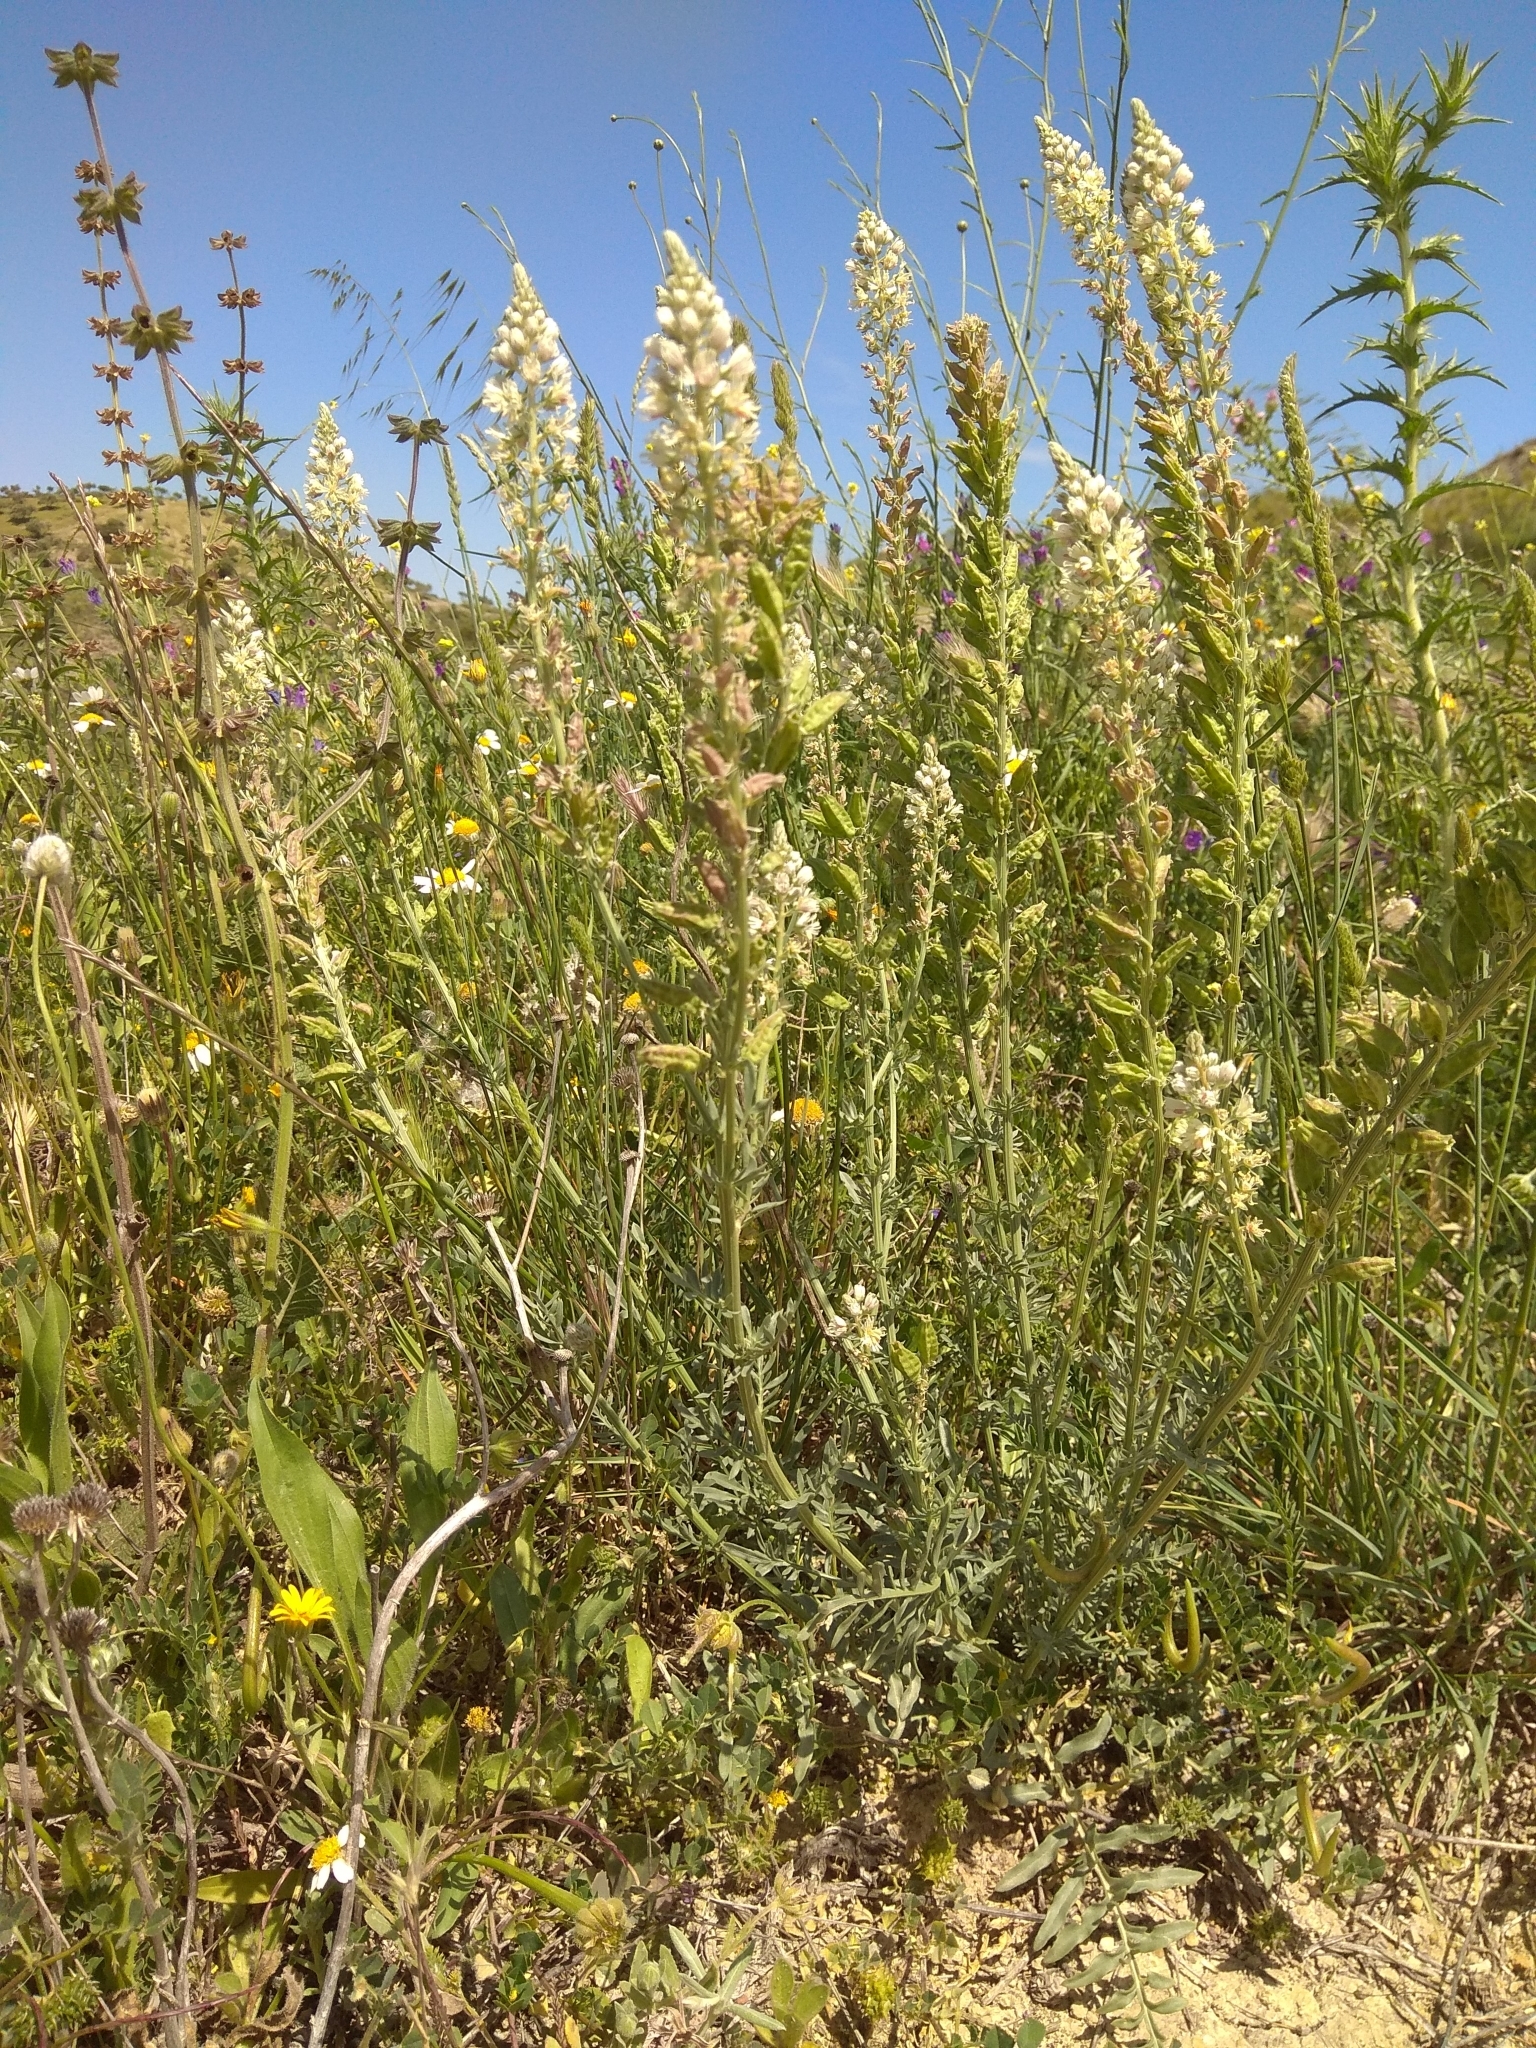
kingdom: Plantae
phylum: Tracheophyta
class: Magnoliopsida
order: Brassicales
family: Resedaceae
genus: Reseda
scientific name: Reseda alba
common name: White mignonette
